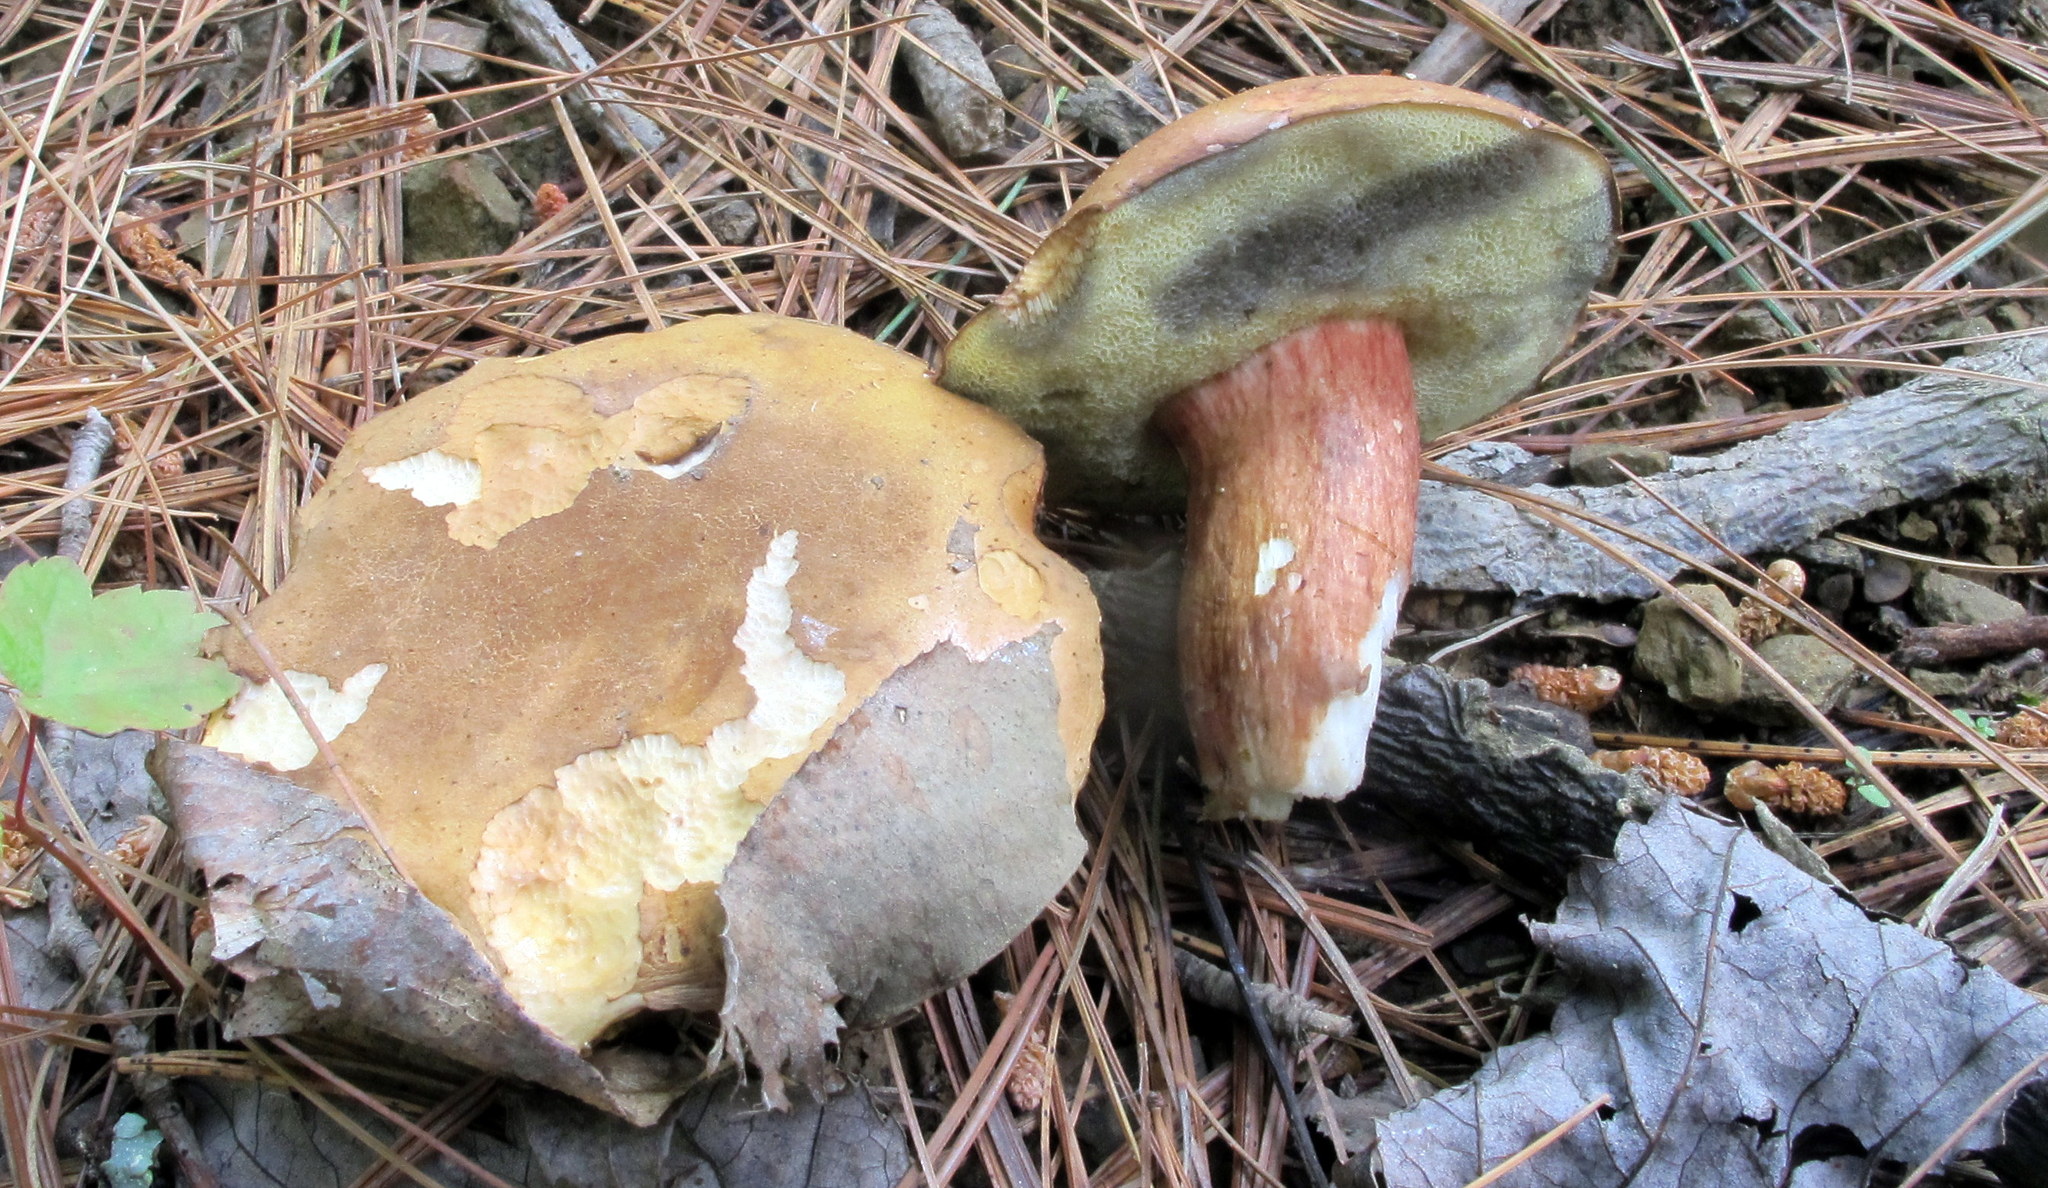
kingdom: Fungi
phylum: Basidiomycota
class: Agaricomycetes
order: Boletales
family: Boletaceae
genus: Imleria
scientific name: Imleria badia
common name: Bay bolete
